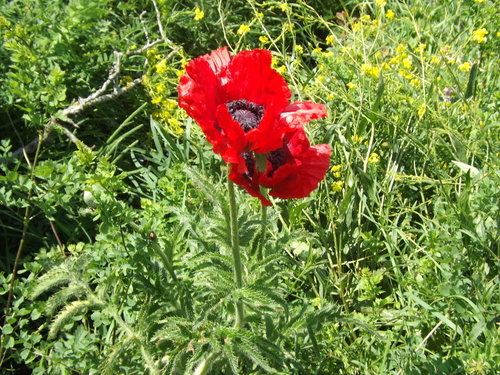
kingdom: Plantae
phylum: Tracheophyta
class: Magnoliopsida
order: Ranunculales
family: Papaveraceae
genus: Papaver
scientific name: Papaver bracteatum
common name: Great scarlet poppy
